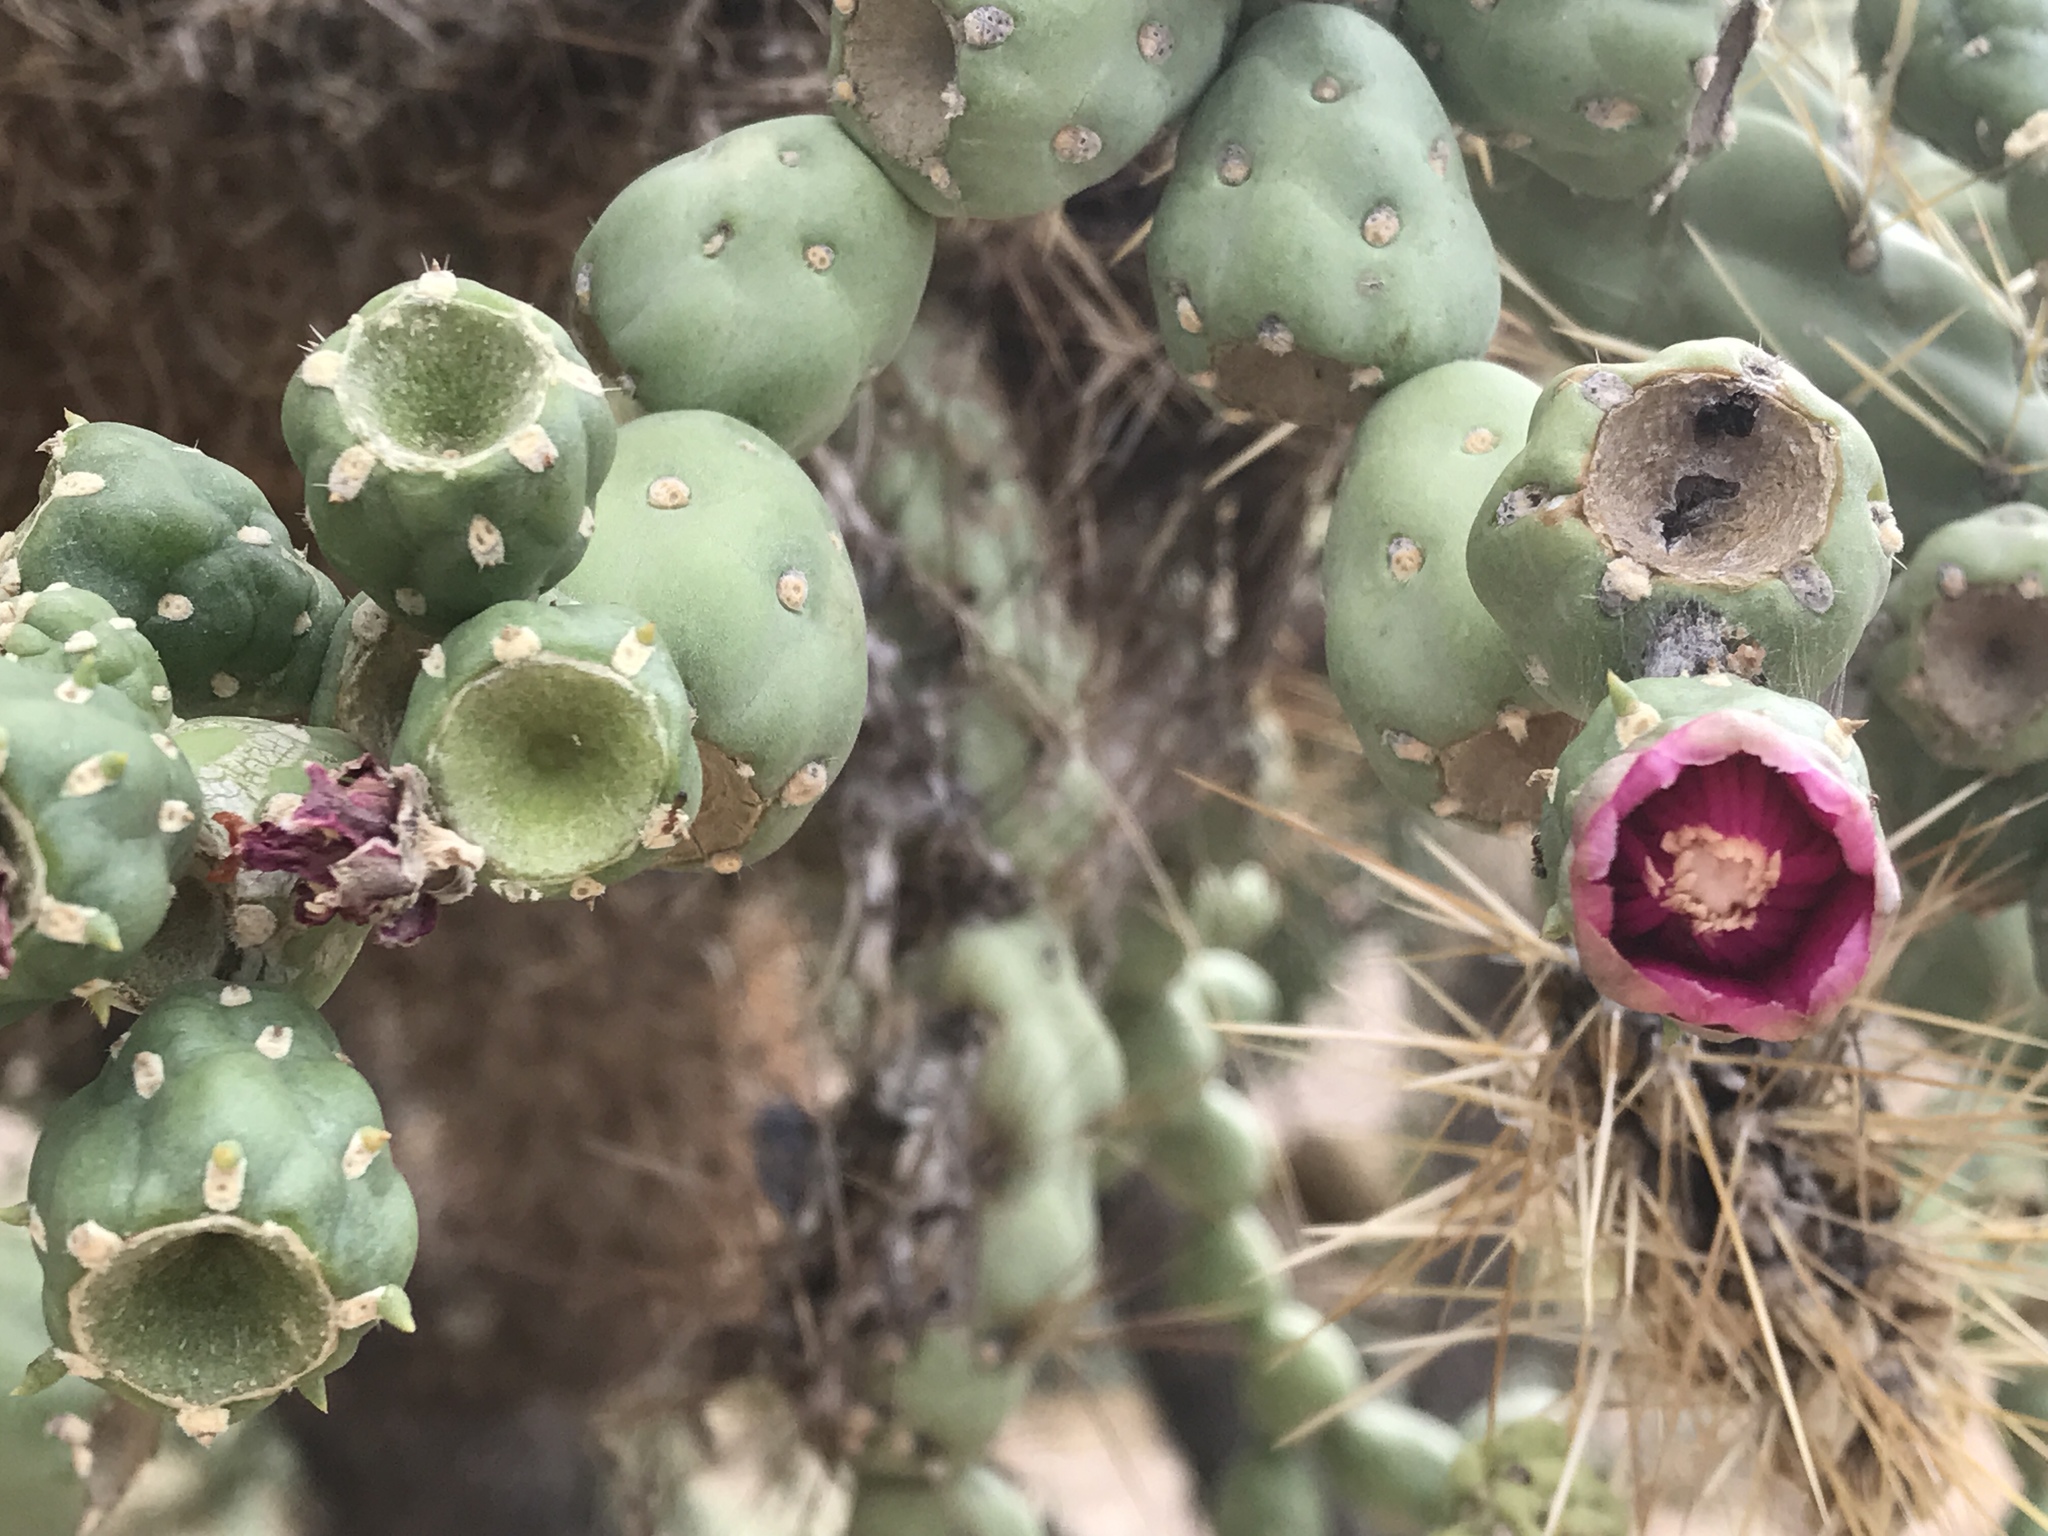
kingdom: Plantae
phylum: Tracheophyta
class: Magnoliopsida
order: Caryophyllales
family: Cactaceae
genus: Cylindropuntia
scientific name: Cylindropuntia fulgida
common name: Jumping cholla
